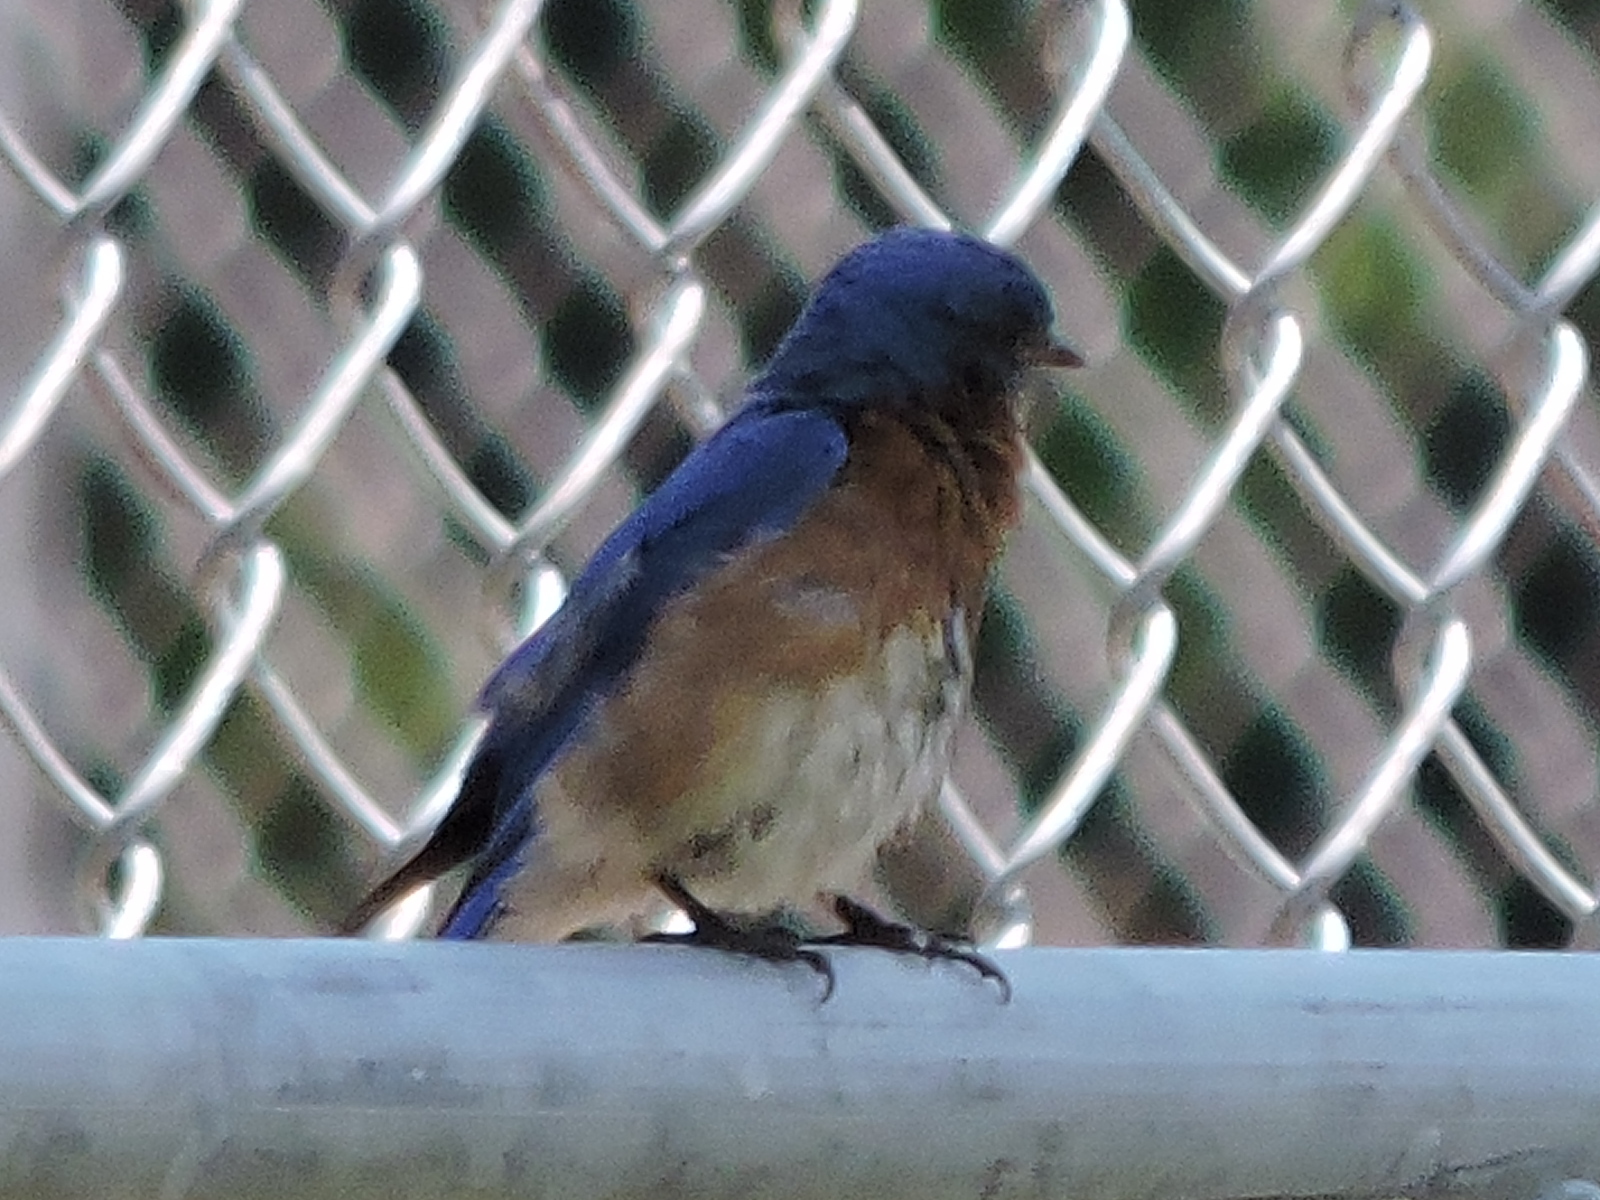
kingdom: Animalia
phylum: Chordata
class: Aves
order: Passeriformes
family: Turdidae
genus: Sialia
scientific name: Sialia sialis
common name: Eastern bluebird
